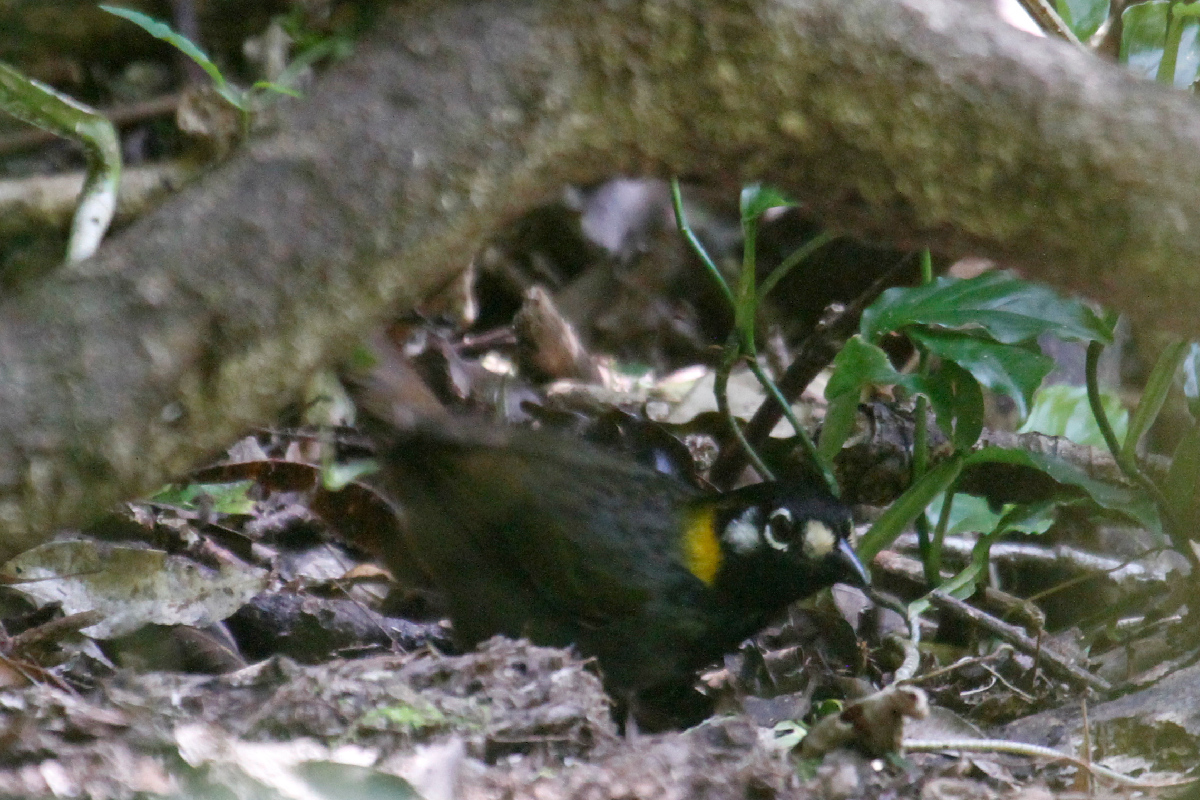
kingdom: Animalia
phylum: Chordata
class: Aves
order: Passeriformes
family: Passerellidae
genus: Melozone
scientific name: Melozone leucotis
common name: White-eared ground-sparrow
